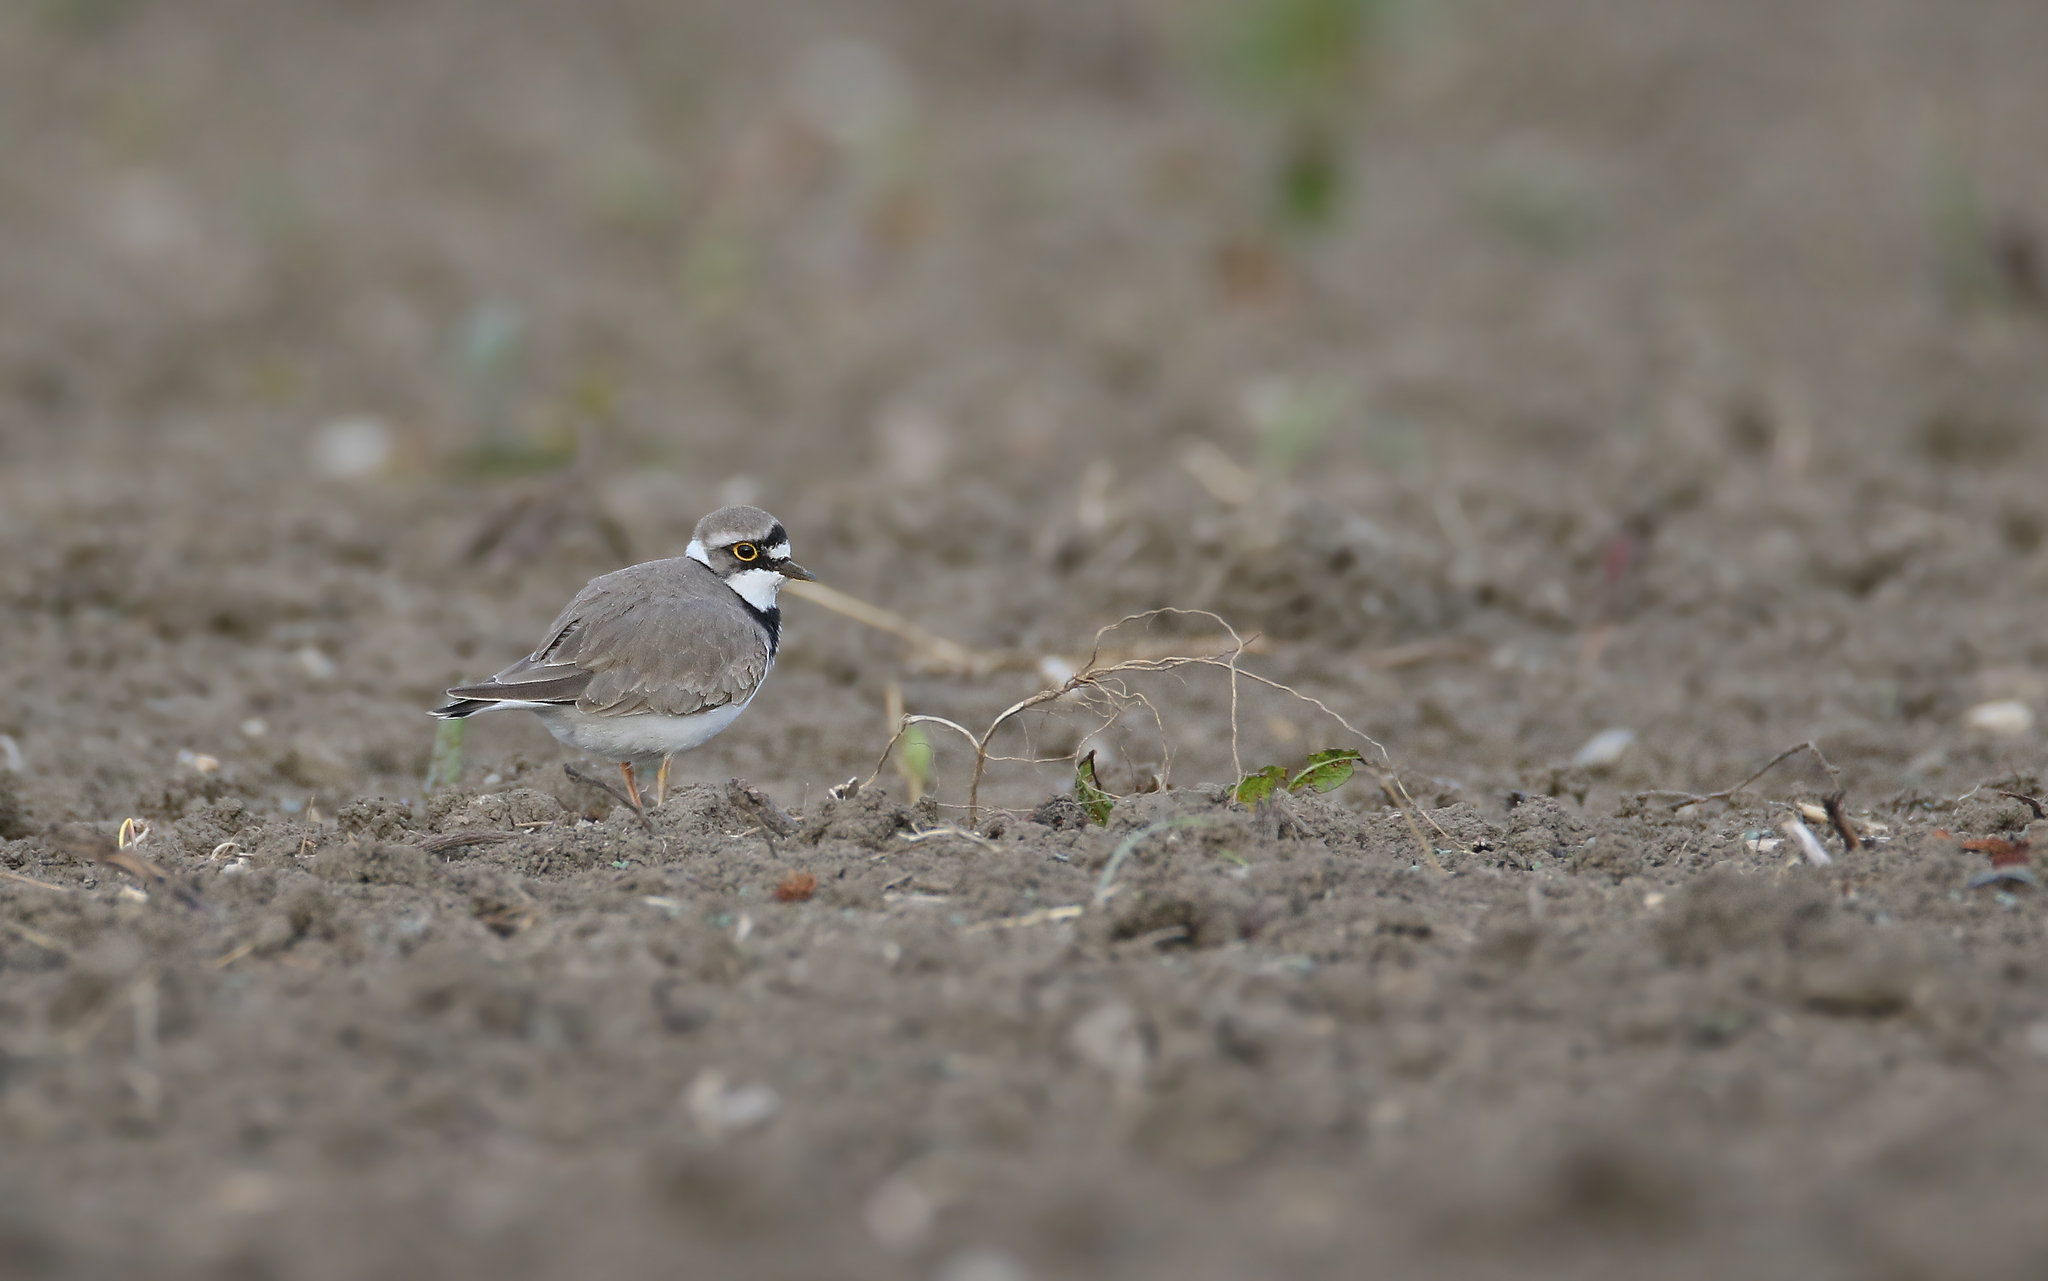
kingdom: Animalia
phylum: Chordata
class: Aves
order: Charadriiformes
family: Charadriidae
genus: Charadrius
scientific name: Charadrius dubius
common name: Little ringed plover
